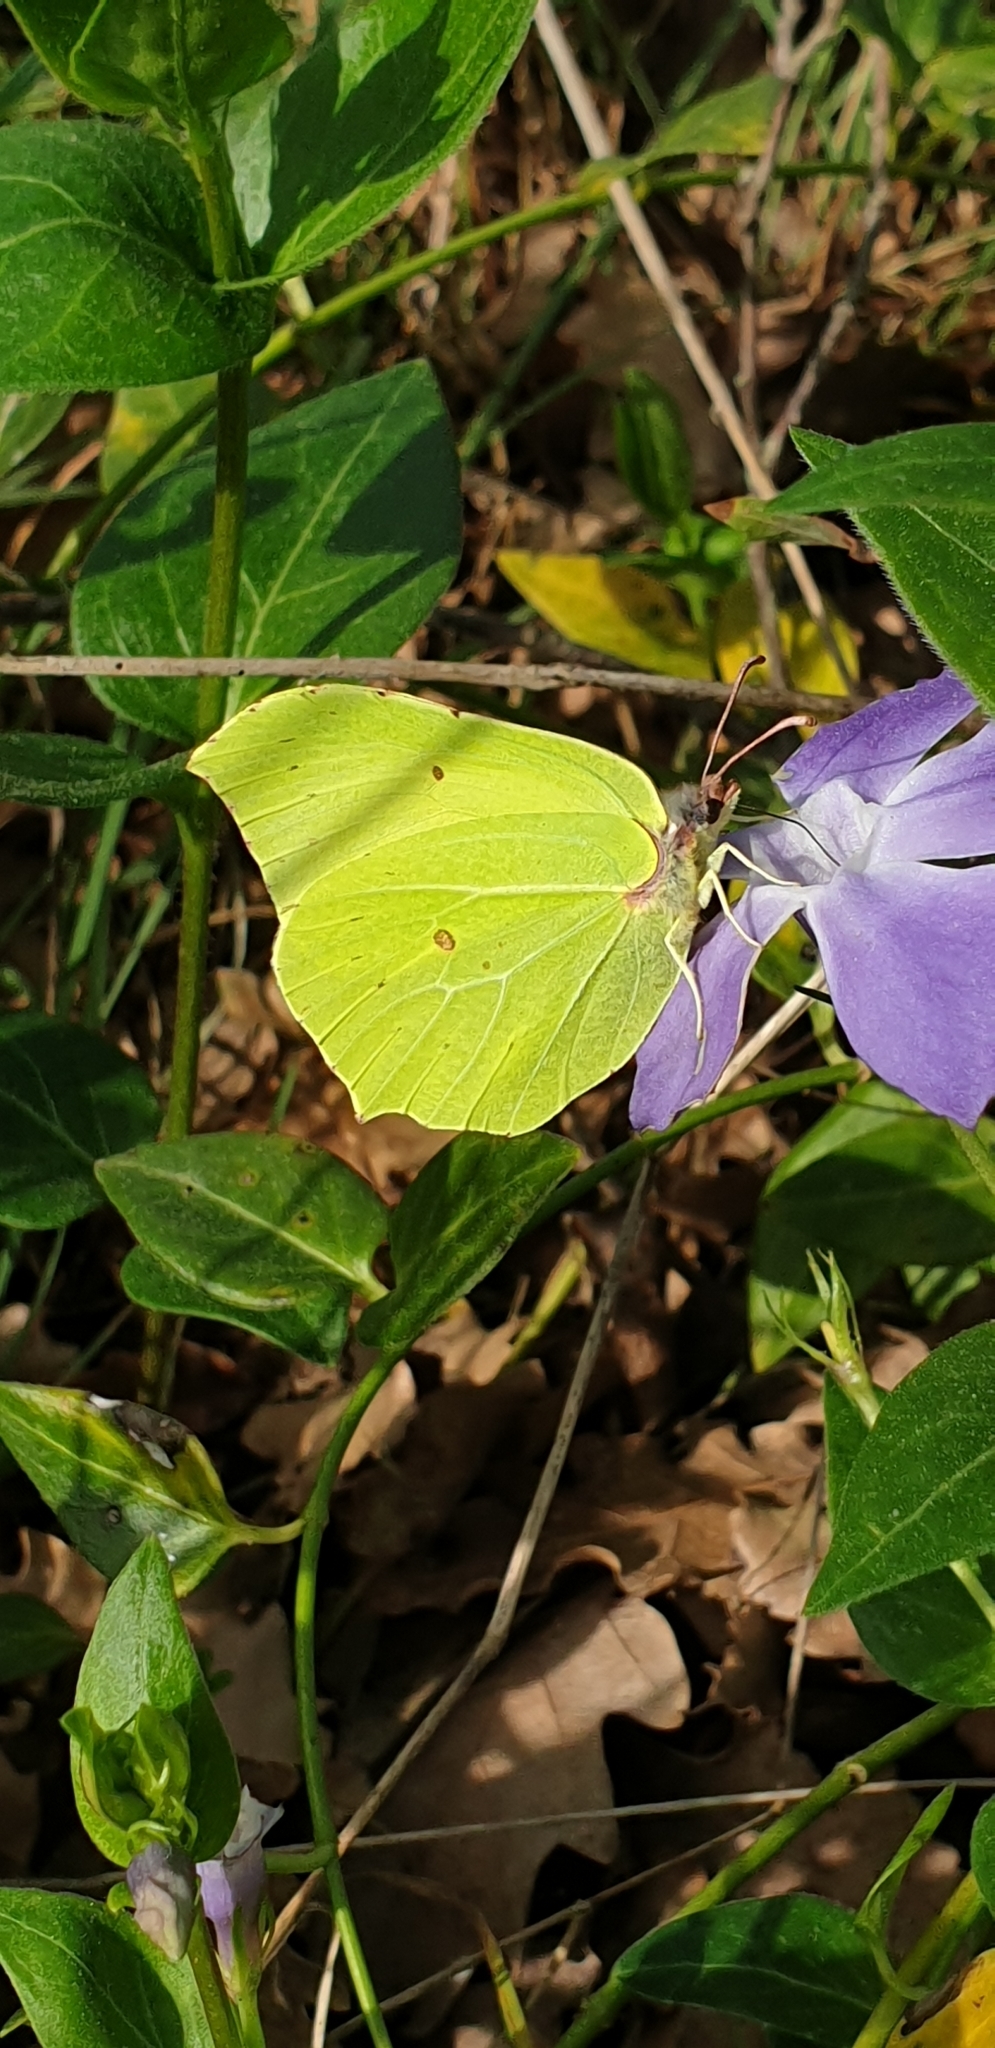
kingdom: Animalia
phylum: Arthropoda
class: Insecta
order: Lepidoptera
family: Pieridae
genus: Gonepteryx
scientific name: Gonepteryx rhamni
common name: Brimstone
